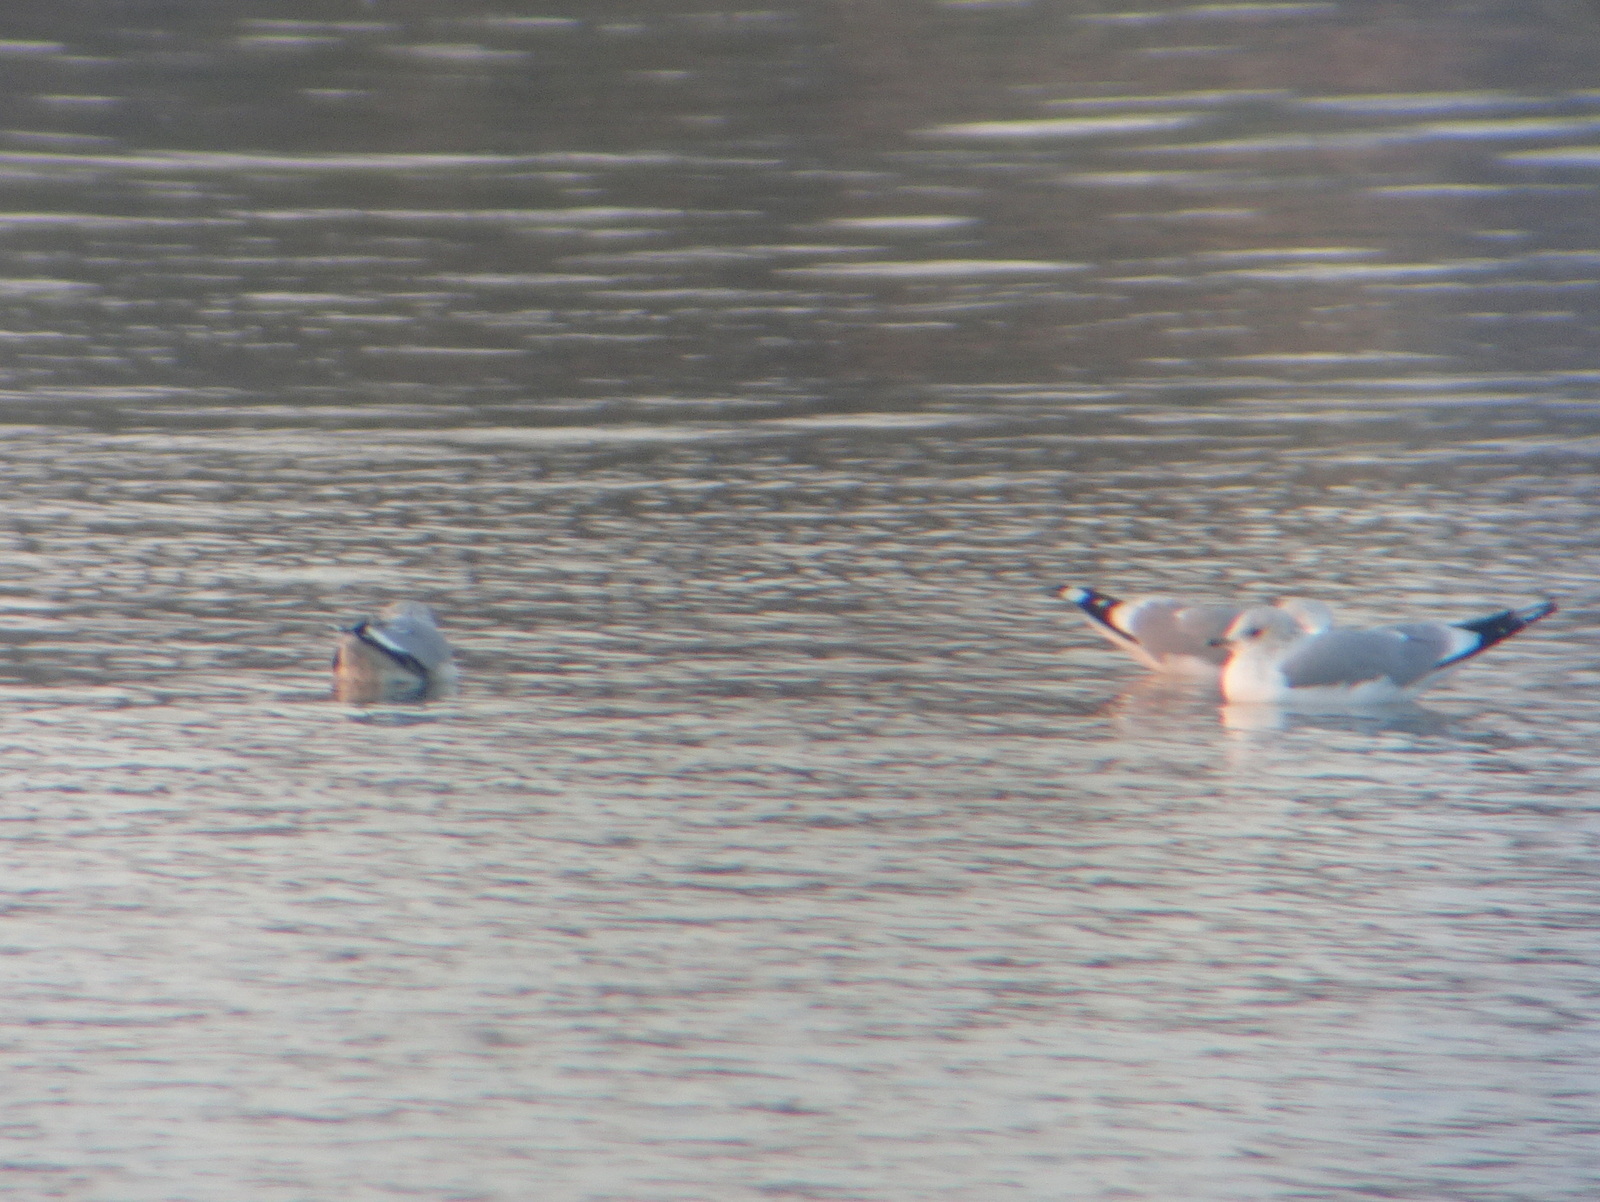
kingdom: Animalia
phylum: Chordata
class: Aves
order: Charadriiformes
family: Laridae
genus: Larus
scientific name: Larus canus
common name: Mew gull
